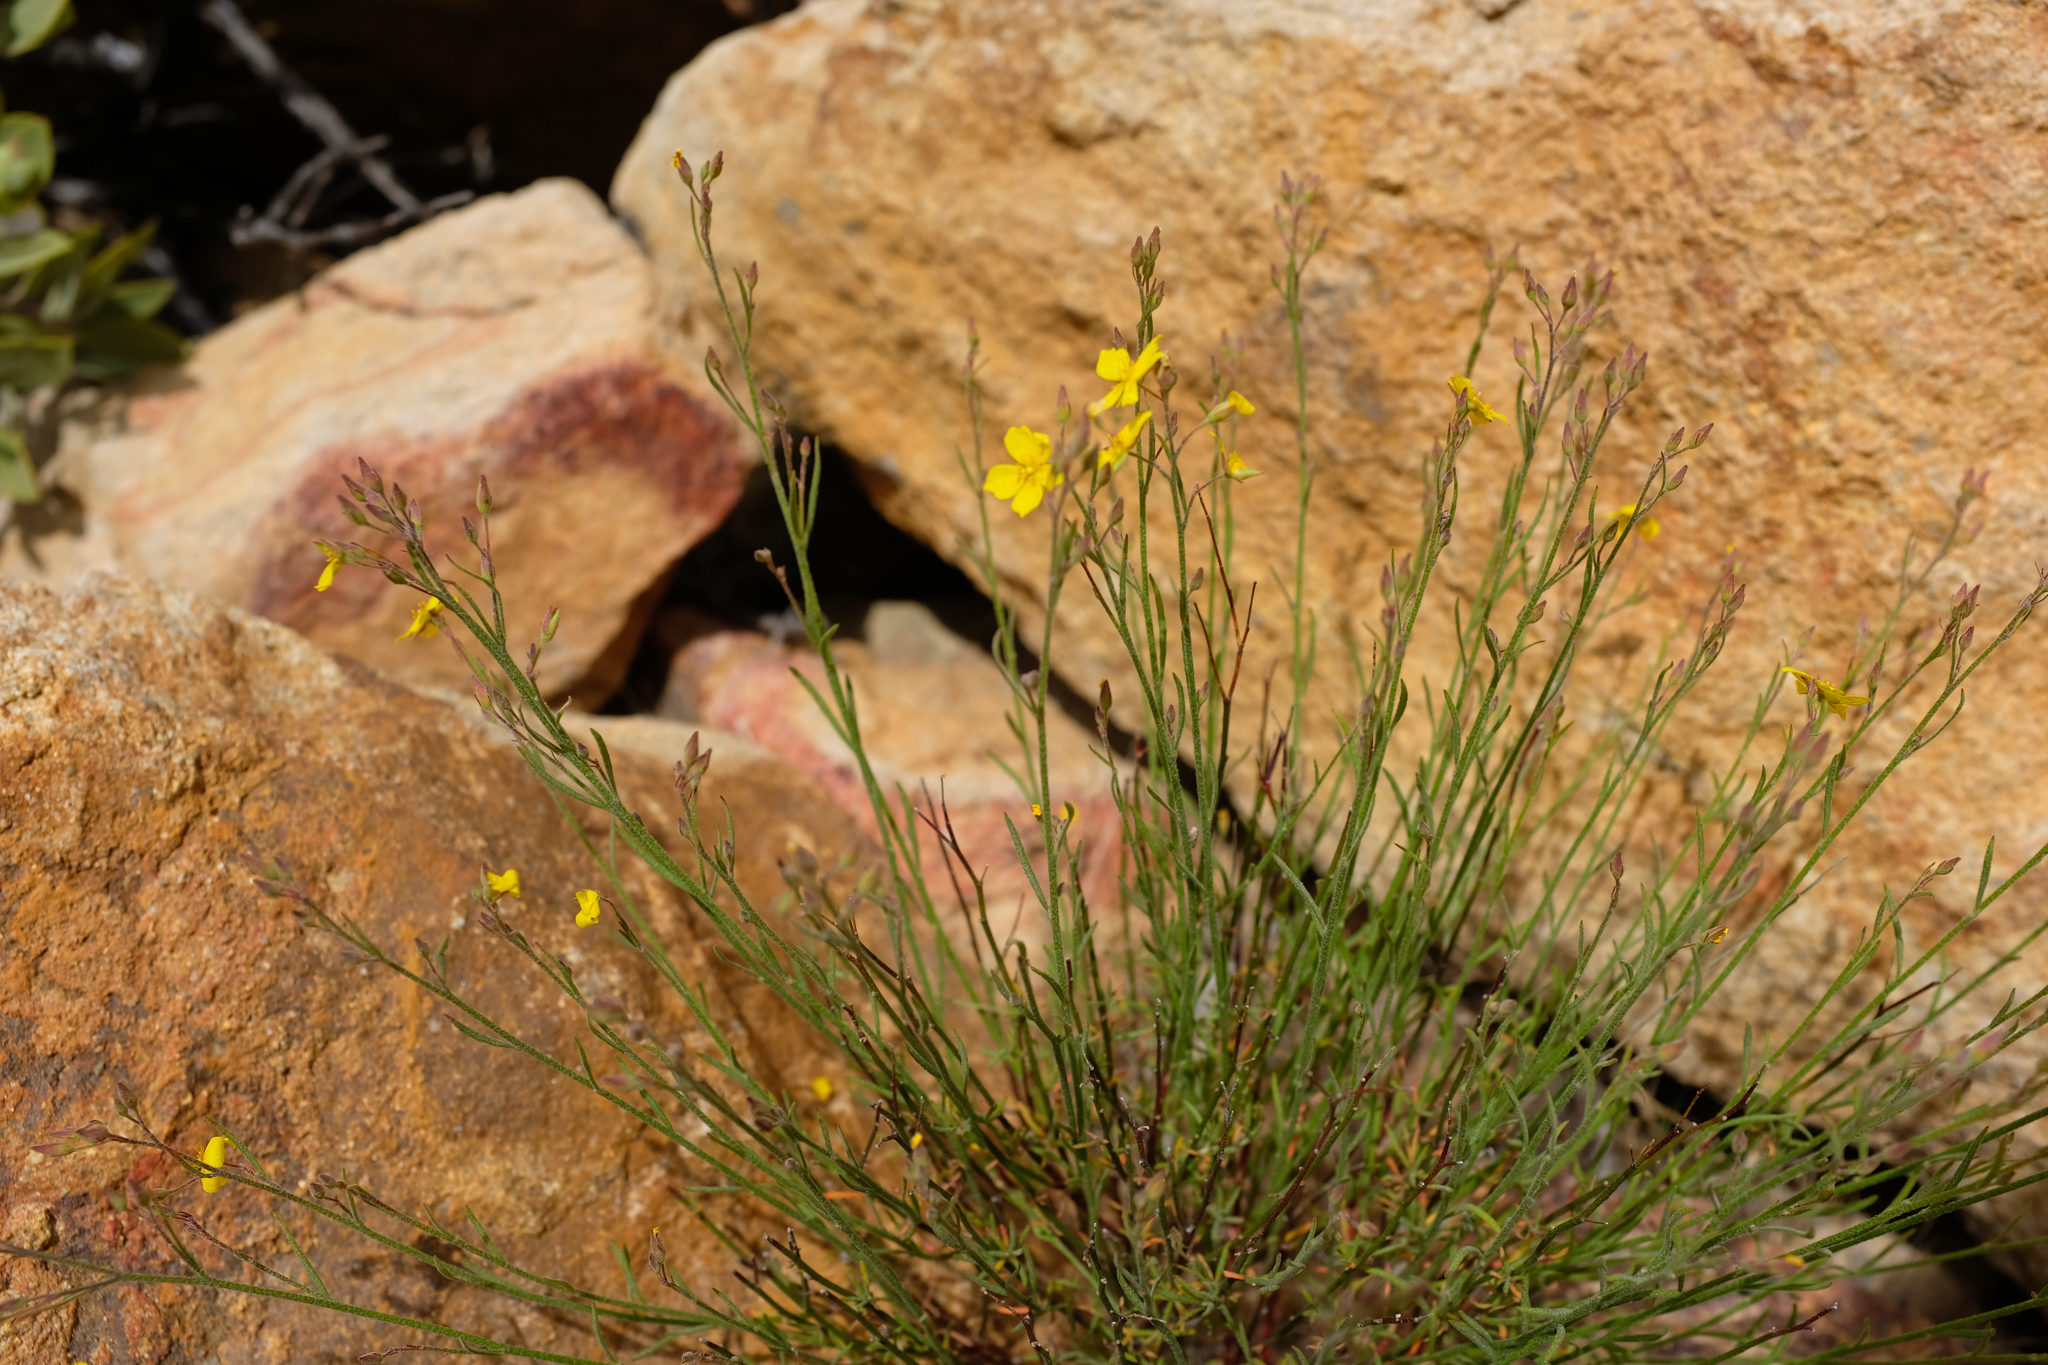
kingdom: Plantae
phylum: Tracheophyta
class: Magnoliopsida
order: Malvales
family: Cistaceae
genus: Crocanthemum
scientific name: Crocanthemum scoparium
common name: Broom-rose
